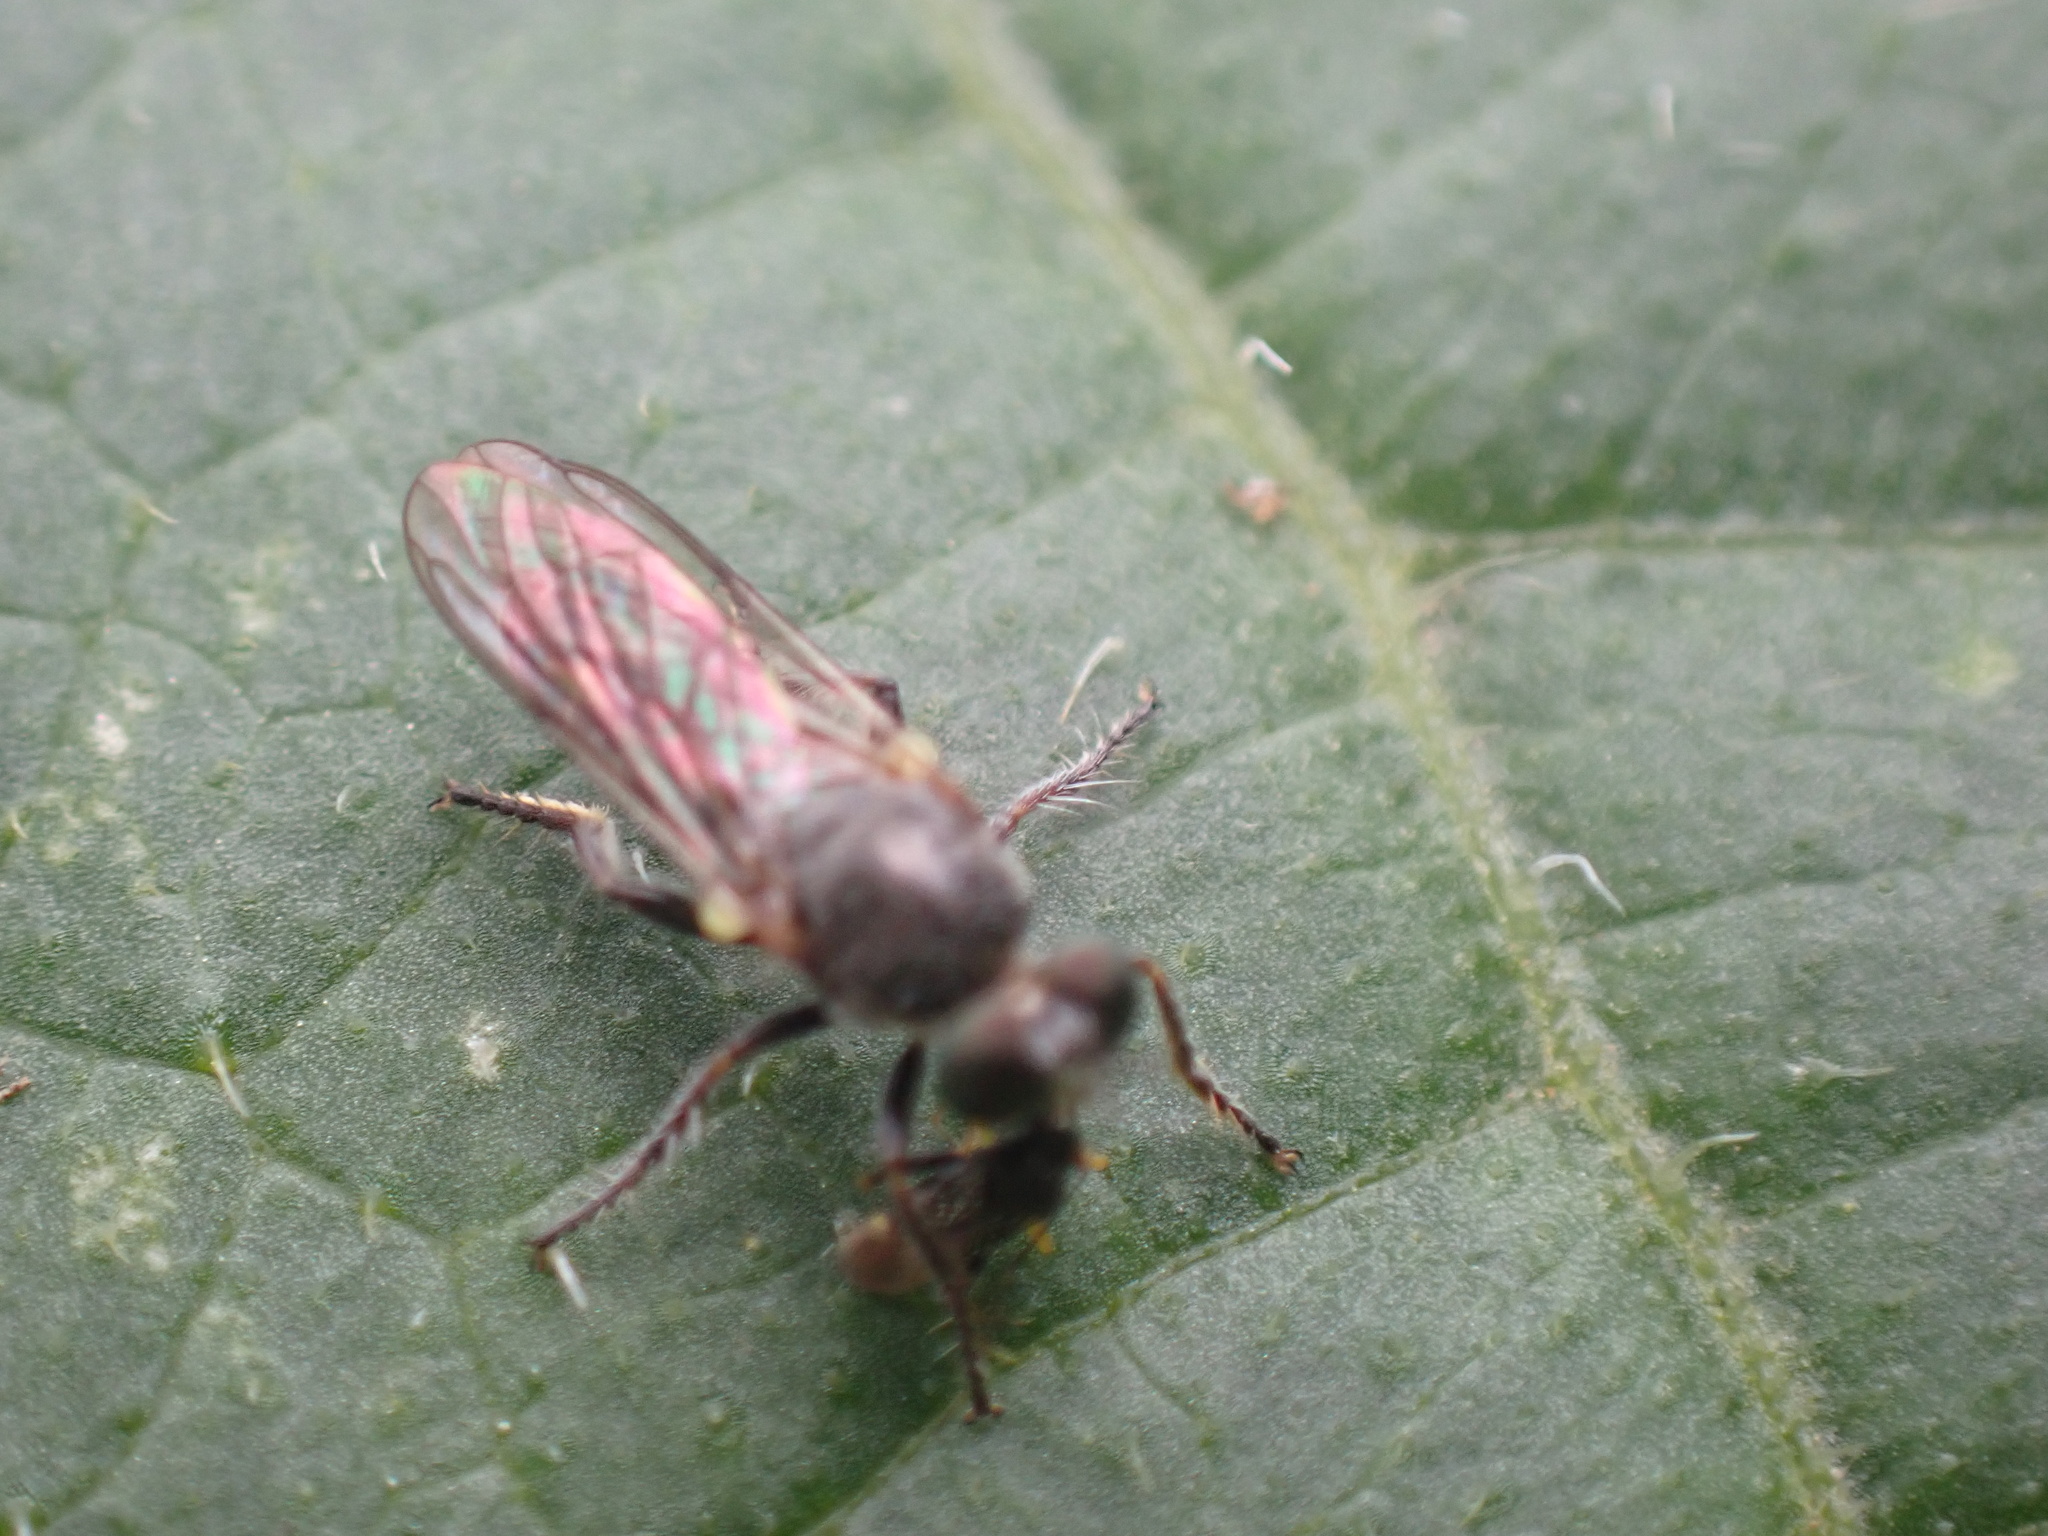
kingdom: Animalia
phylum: Arthropoda
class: Insecta
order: Diptera
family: Asilidae
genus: Atomosia
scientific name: Atomosia puella
